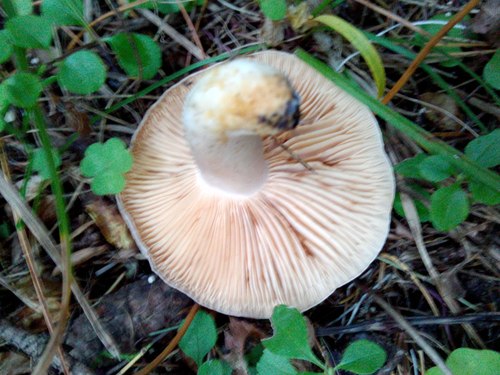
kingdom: Fungi
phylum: Basidiomycota
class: Agaricomycetes
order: Russulales
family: Russulaceae
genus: Lactarius
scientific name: Lactarius
